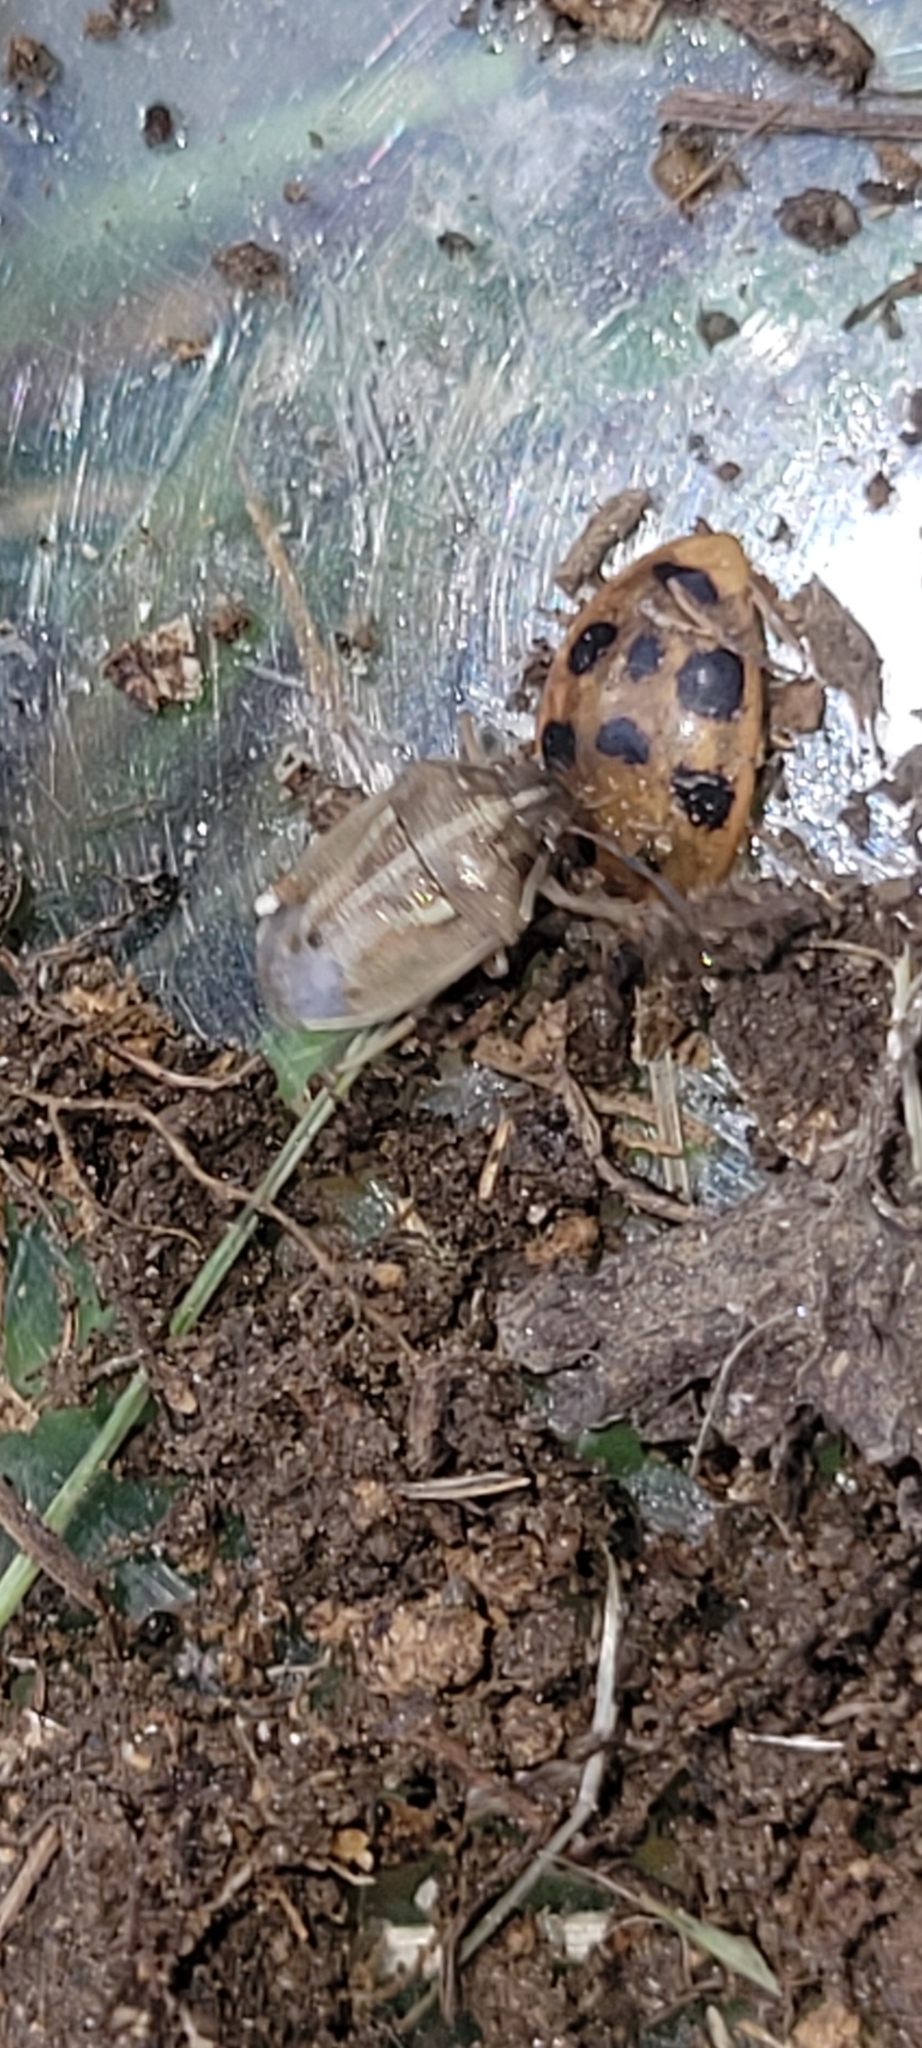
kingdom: Animalia
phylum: Arthropoda
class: Insecta
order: Hemiptera
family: Pentatomidae
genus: Neottiglossa
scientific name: Neottiglossa undata
